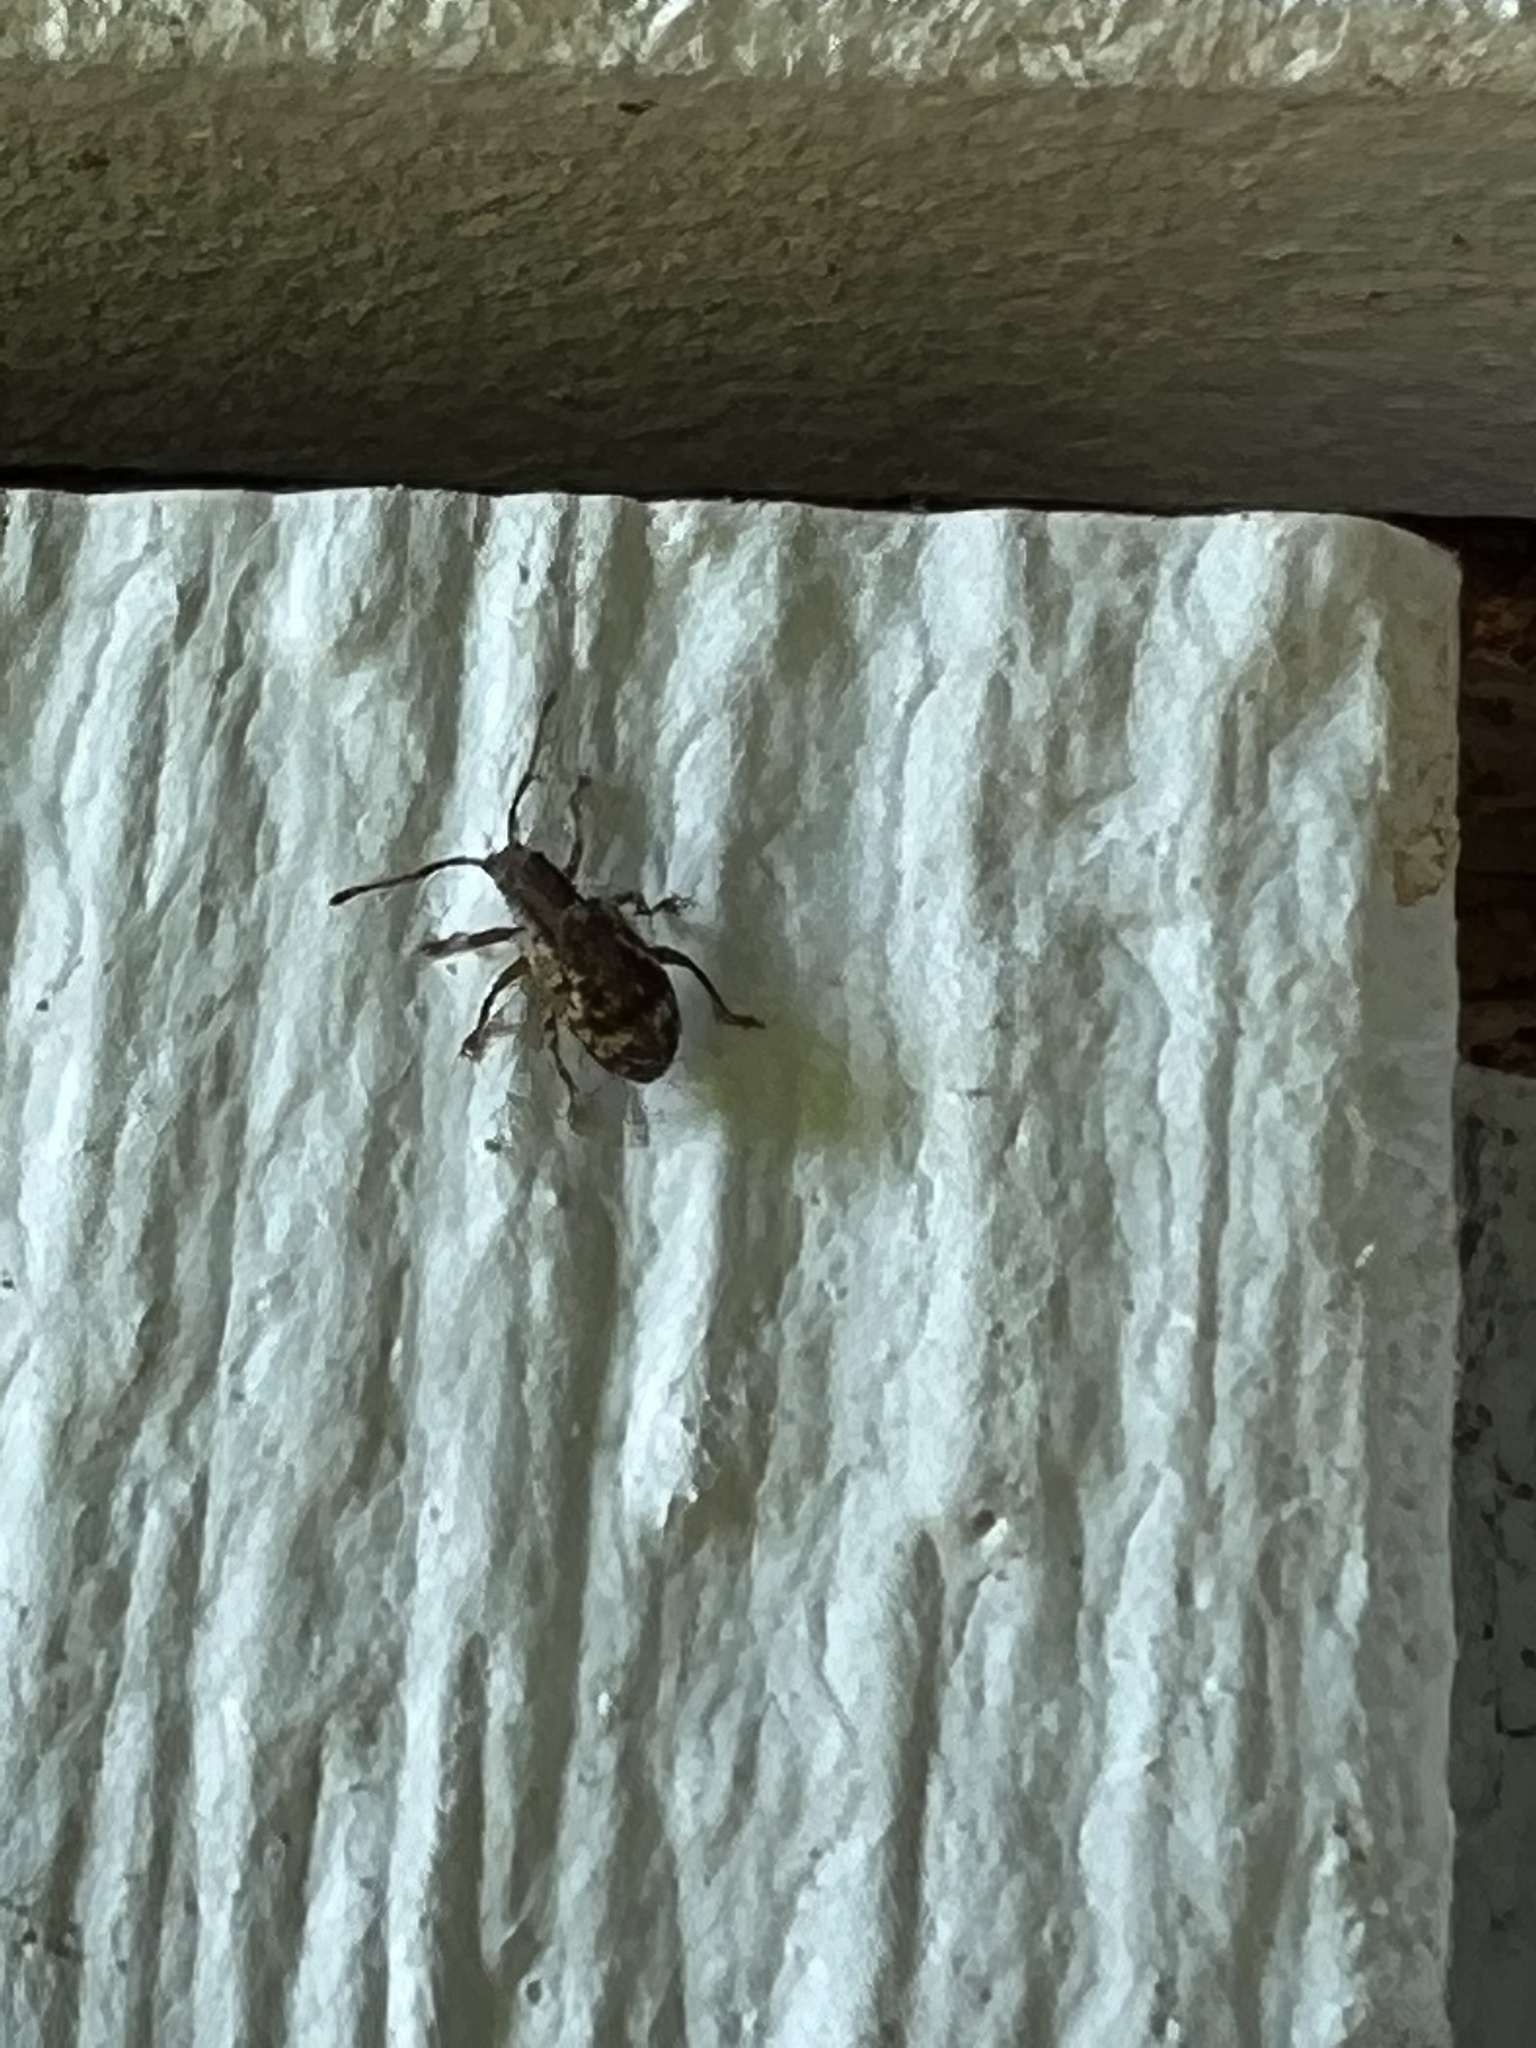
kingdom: Animalia
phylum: Arthropoda
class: Insecta
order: Coleoptera
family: Curculionidae
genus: Pseudoedophrys
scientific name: Pseudoedophrys hilleri
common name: Weevil
